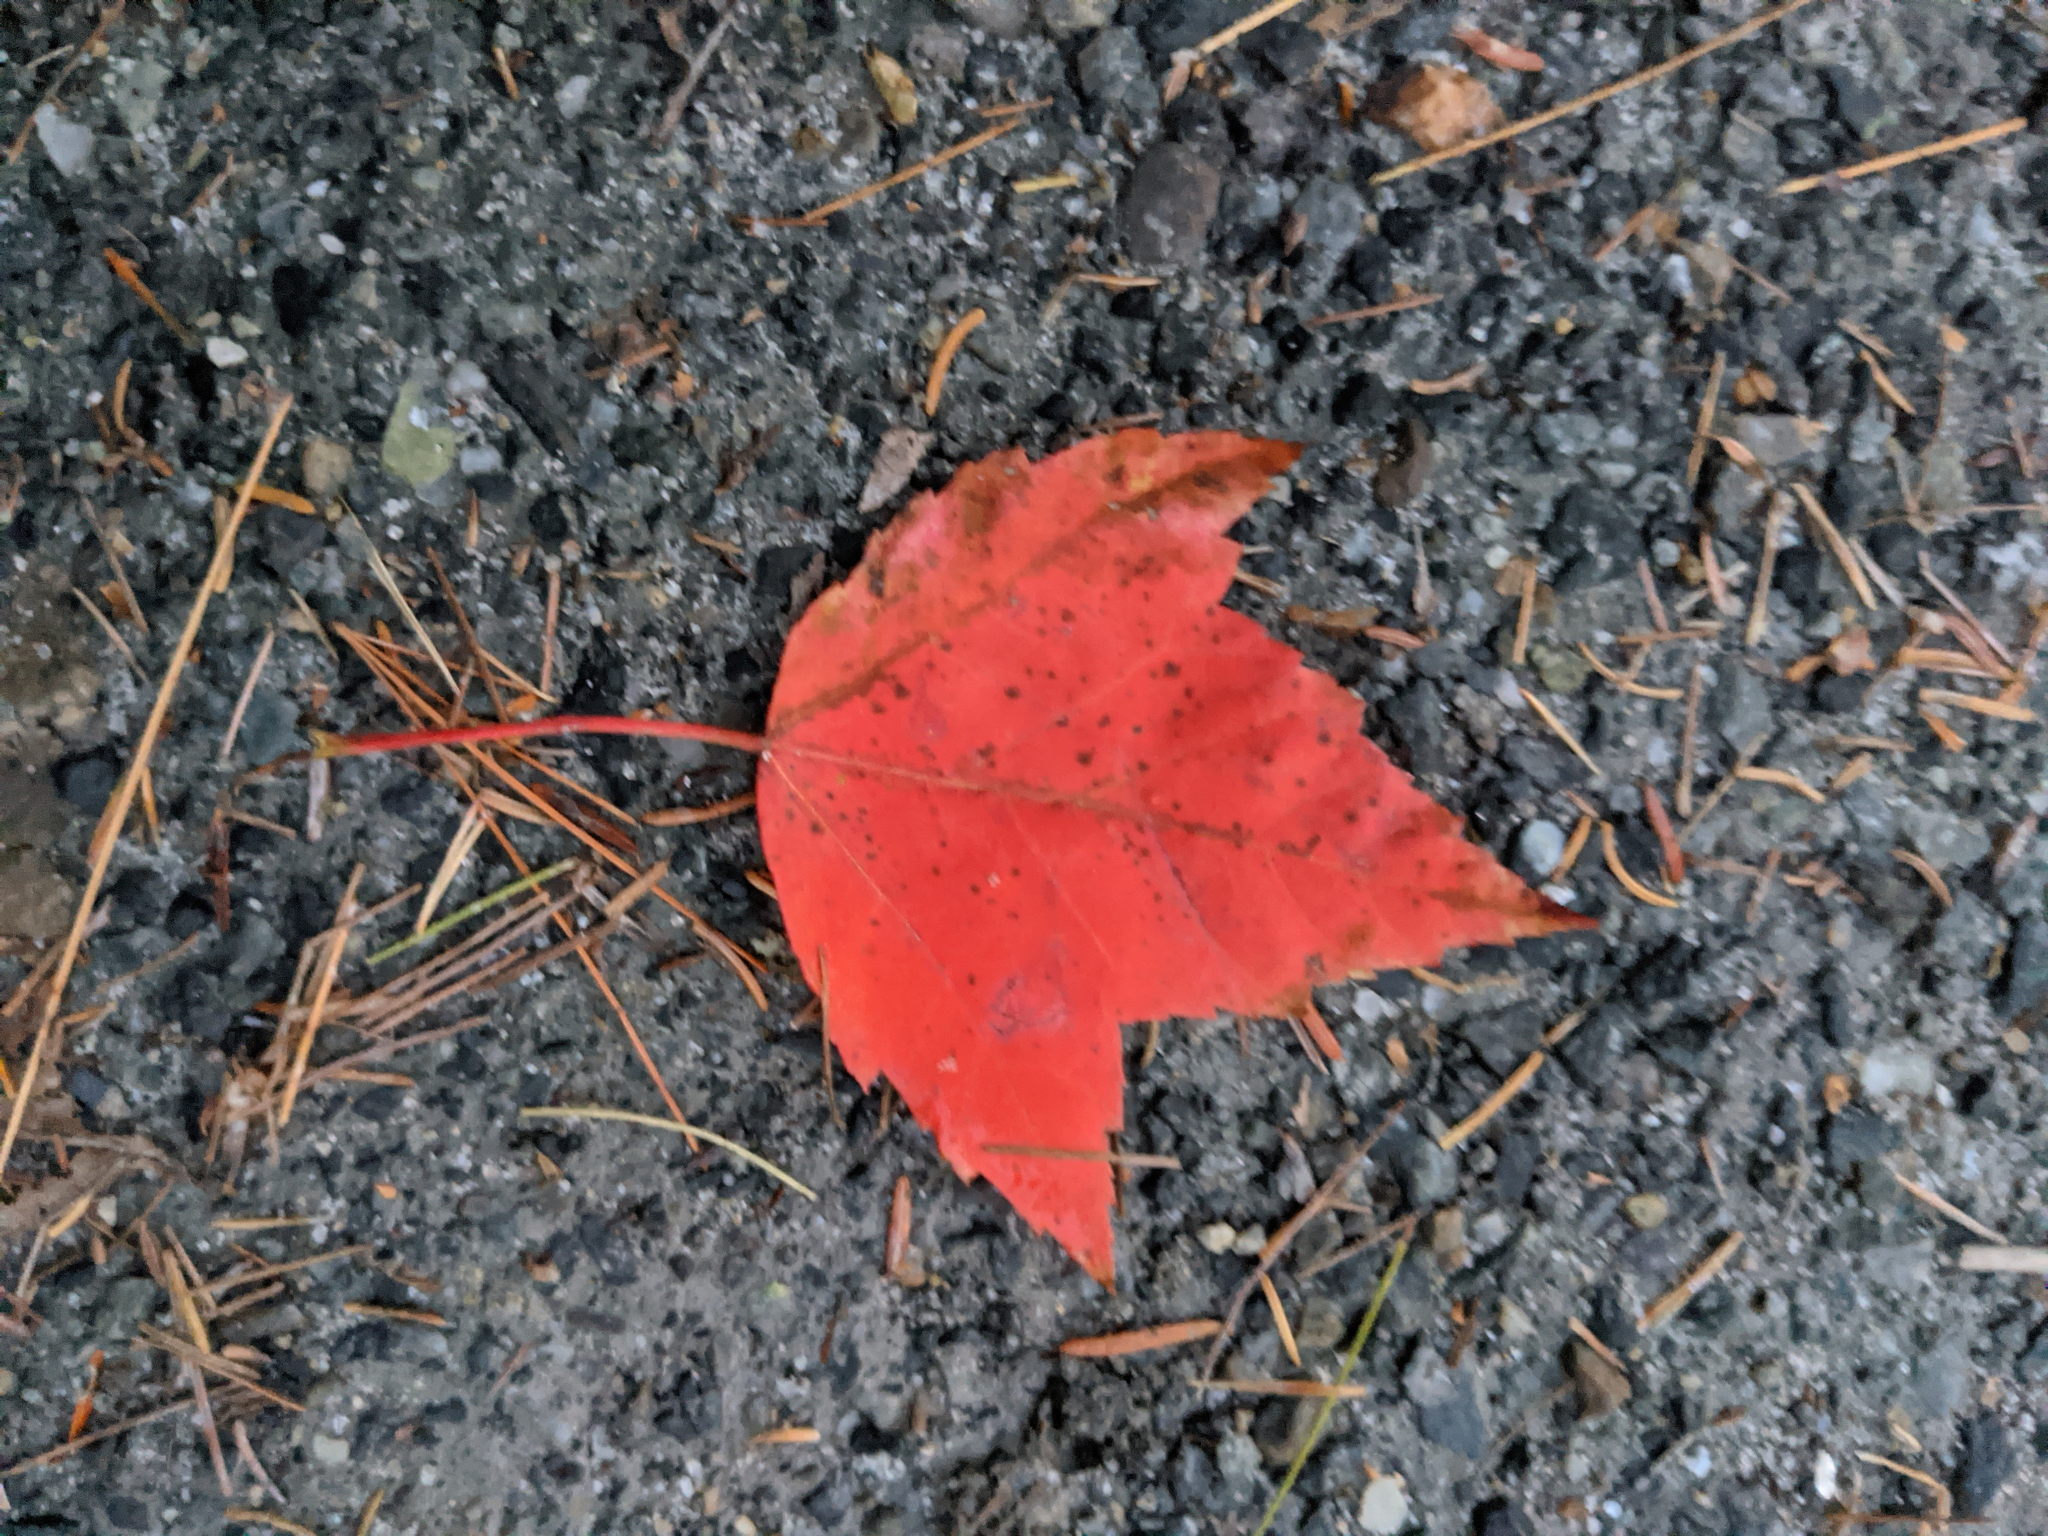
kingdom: Plantae
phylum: Tracheophyta
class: Magnoliopsida
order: Sapindales
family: Sapindaceae
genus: Acer
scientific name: Acer rubrum
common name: Red maple
